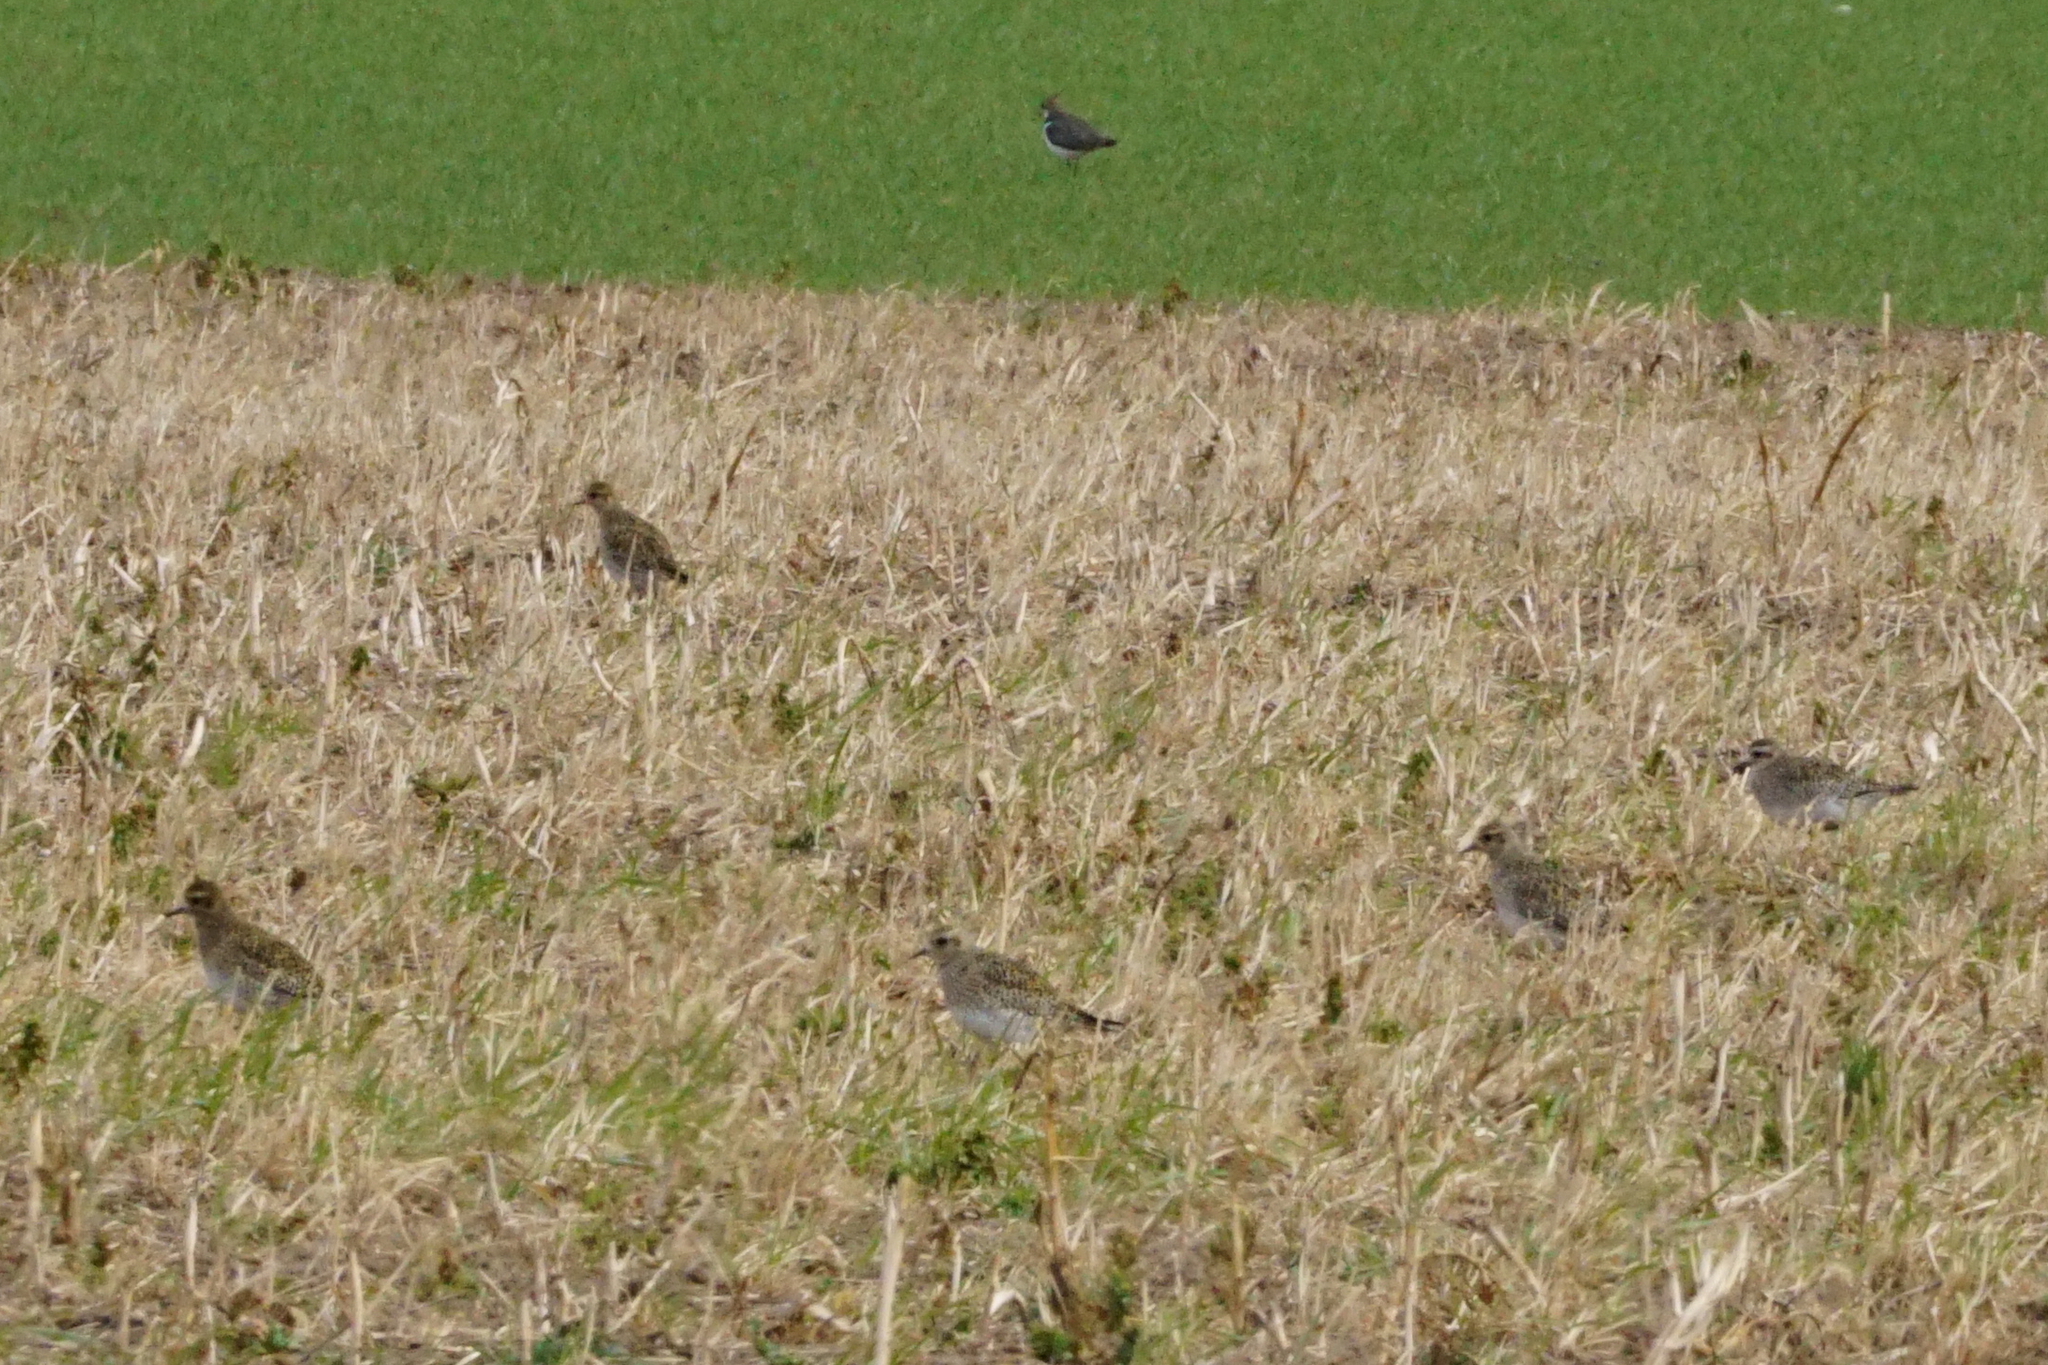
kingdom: Animalia
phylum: Chordata
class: Aves
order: Charadriiformes
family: Charadriidae
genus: Pluvialis
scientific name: Pluvialis apricaria
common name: European golden plover
